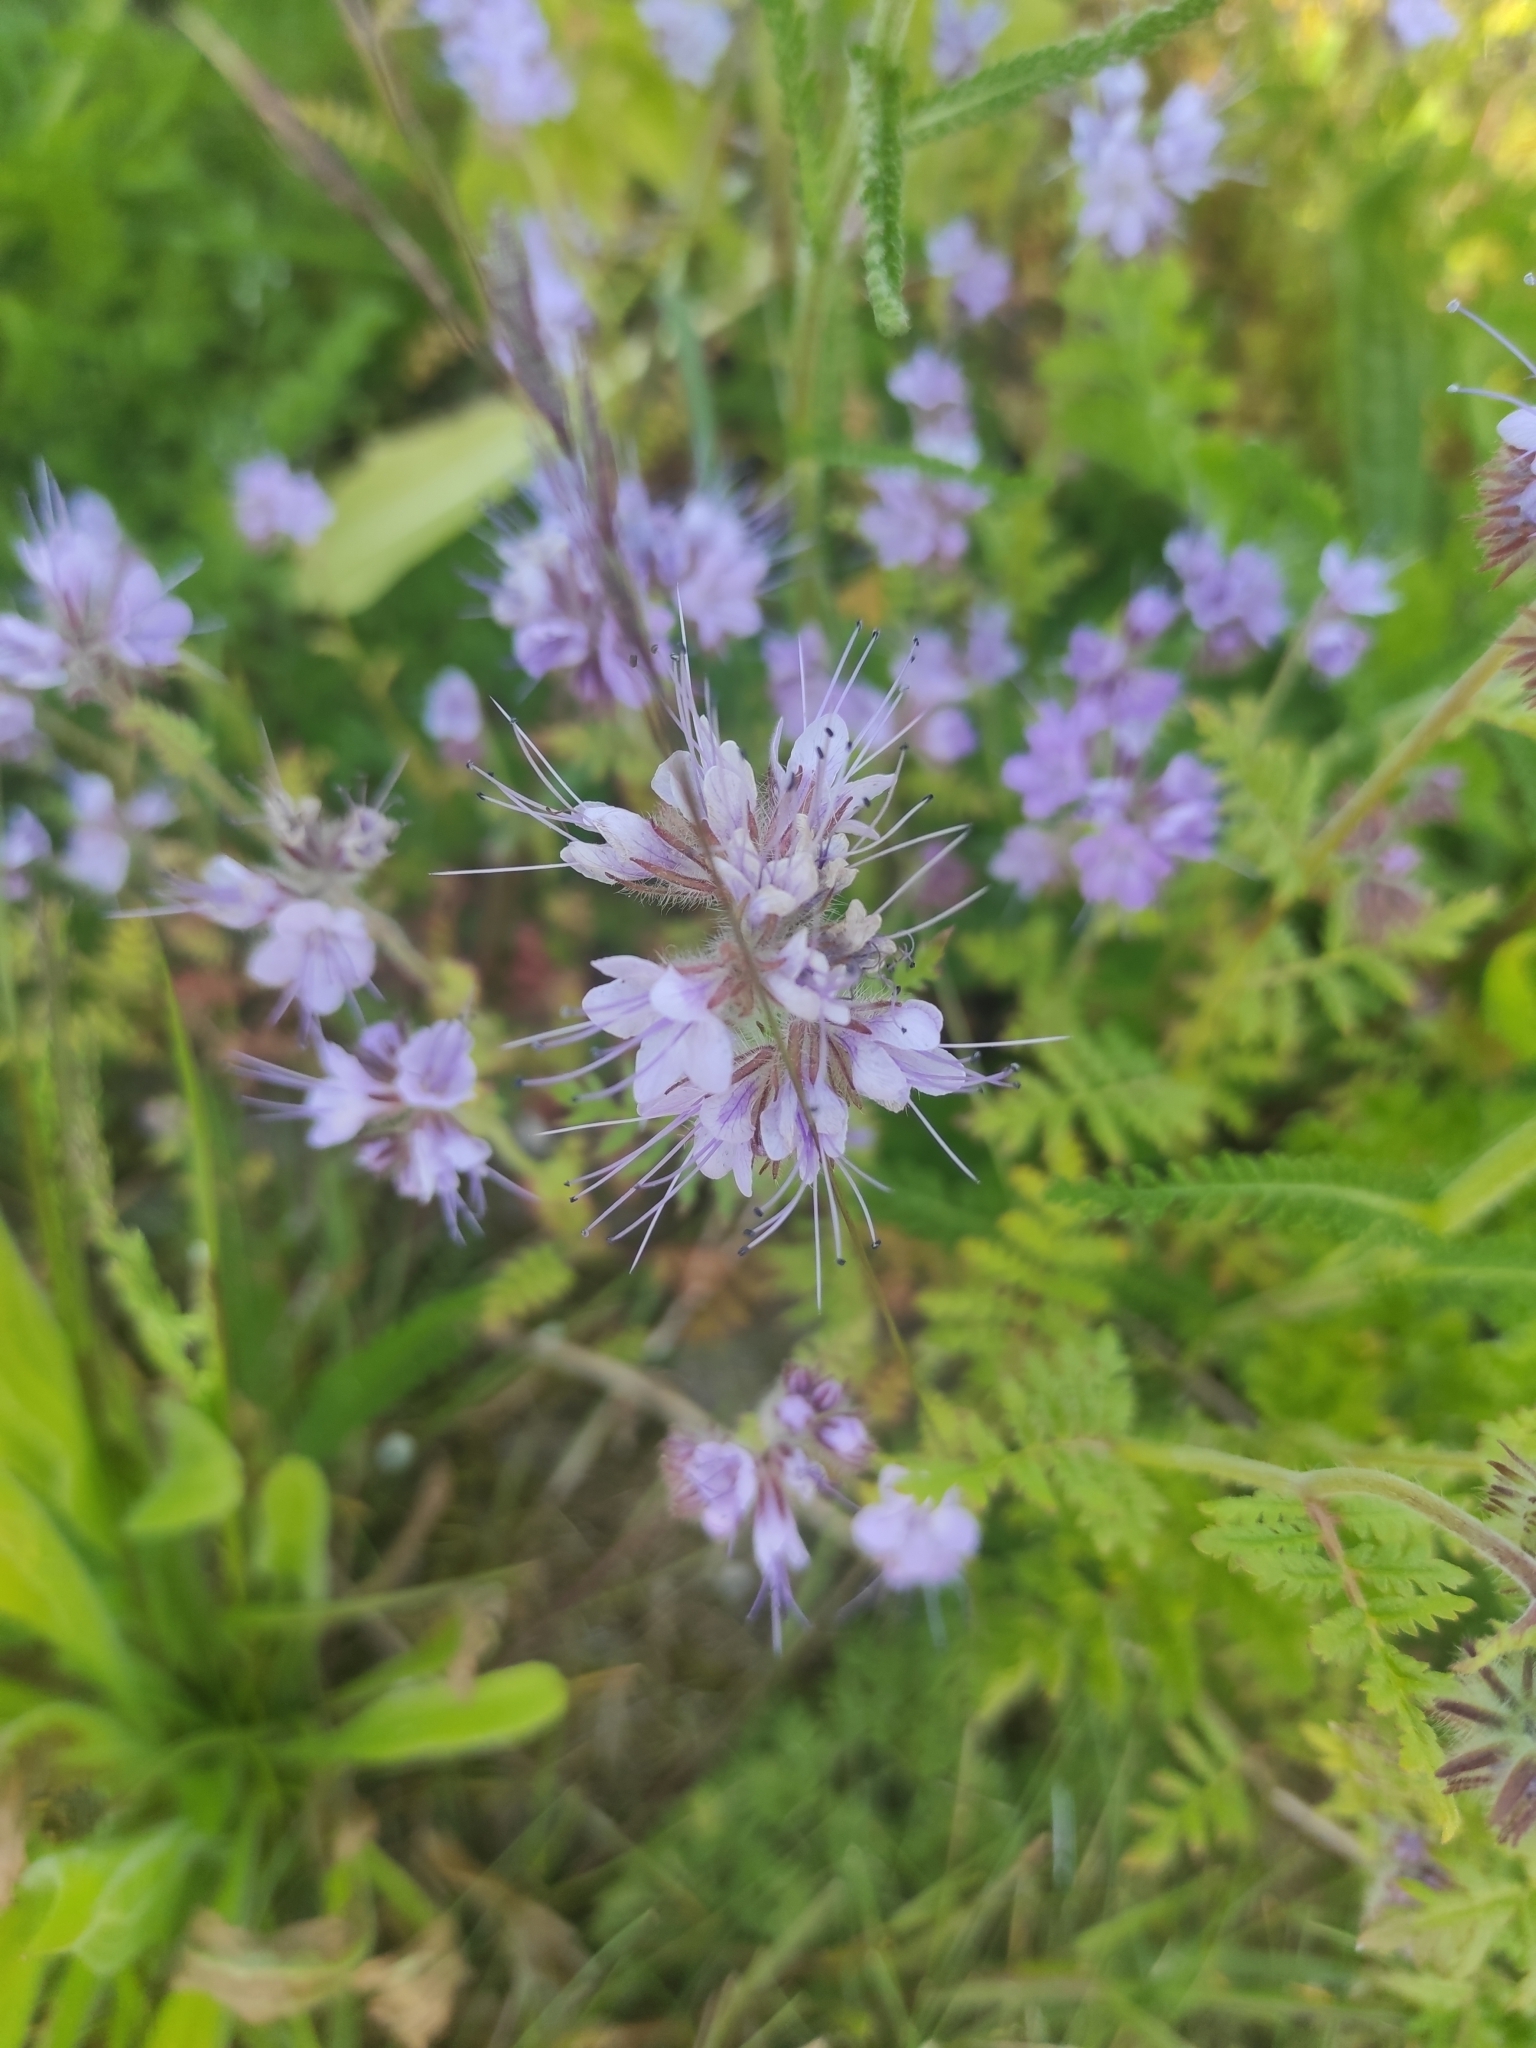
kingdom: Plantae
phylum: Tracheophyta
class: Magnoliopsida
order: Boraginales
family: Hydrophyllaceae
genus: Phacelia
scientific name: Phacelia tanacetifolia
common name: Phacelia
